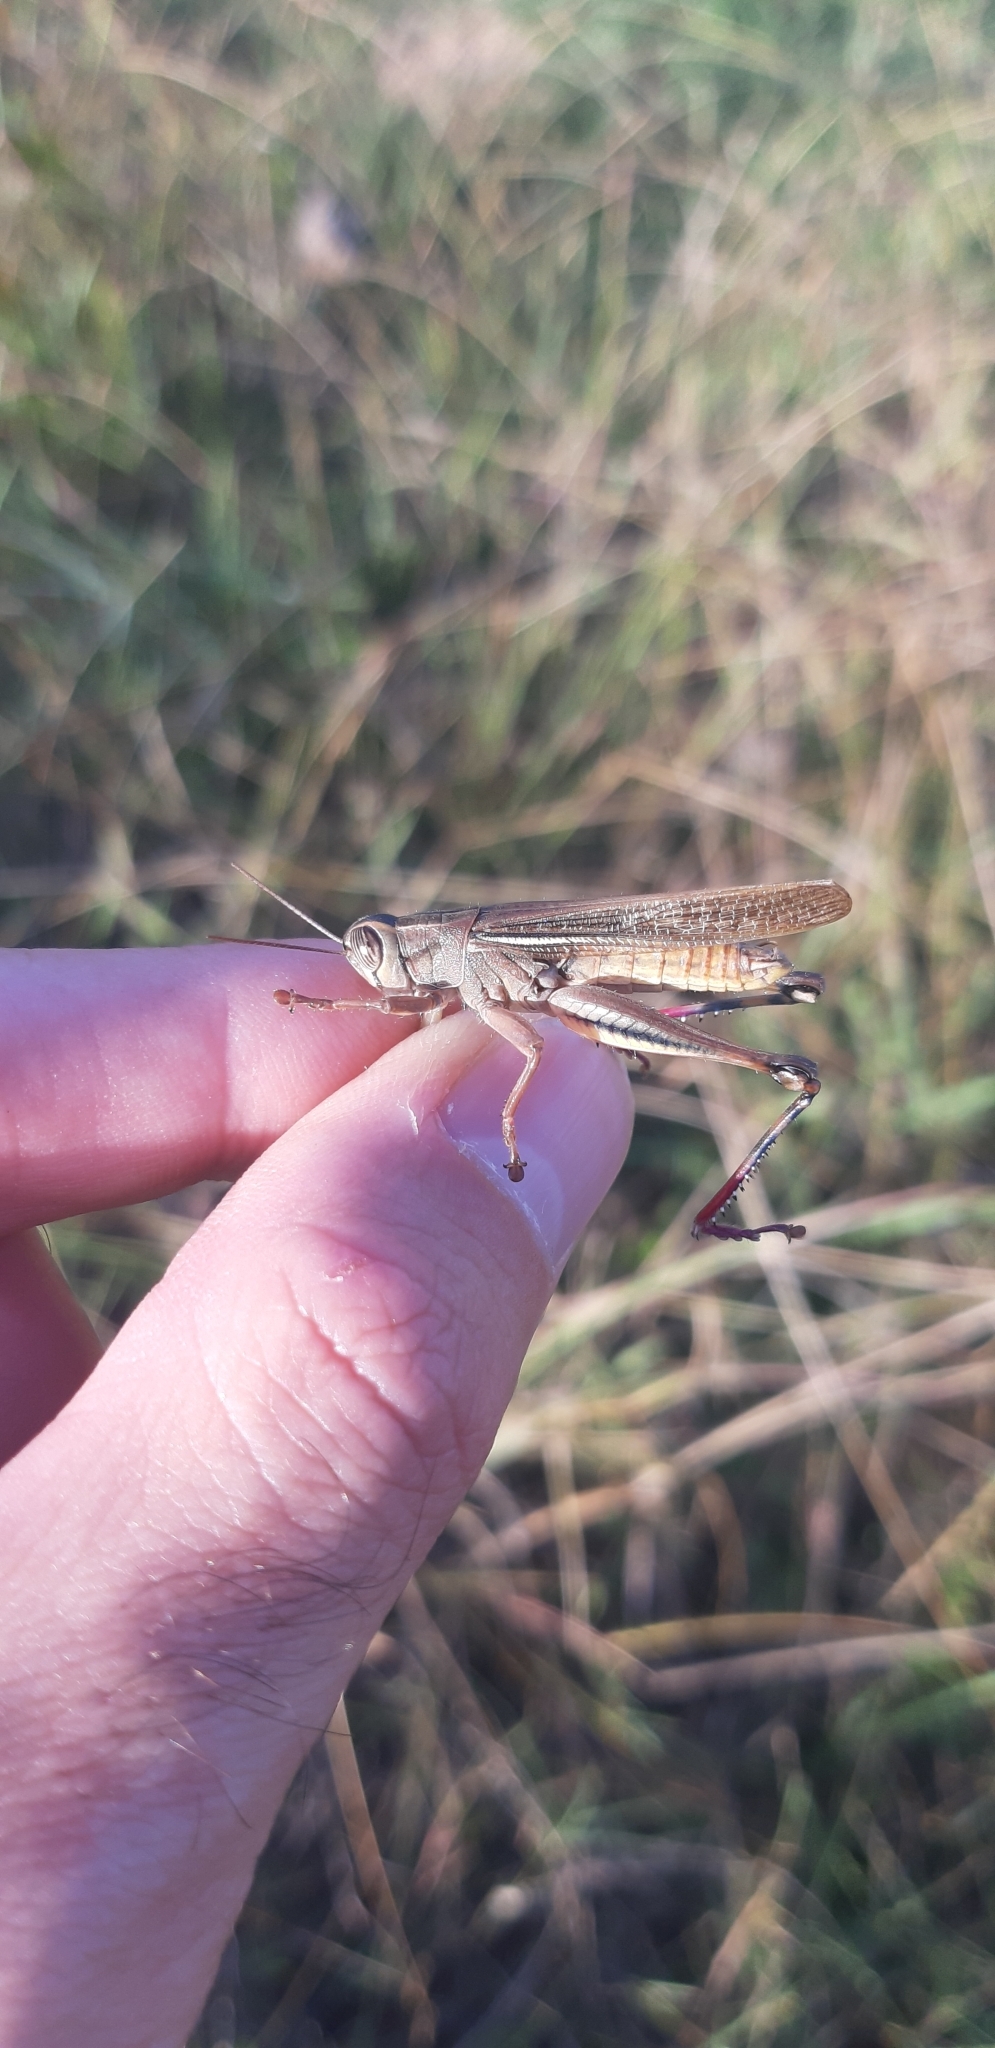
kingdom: Animalia
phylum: Arthropoda
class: Insecta
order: Orthoptera
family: Acrididae
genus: Eyprepocnemis
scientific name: Eyprepocnemis plorans
